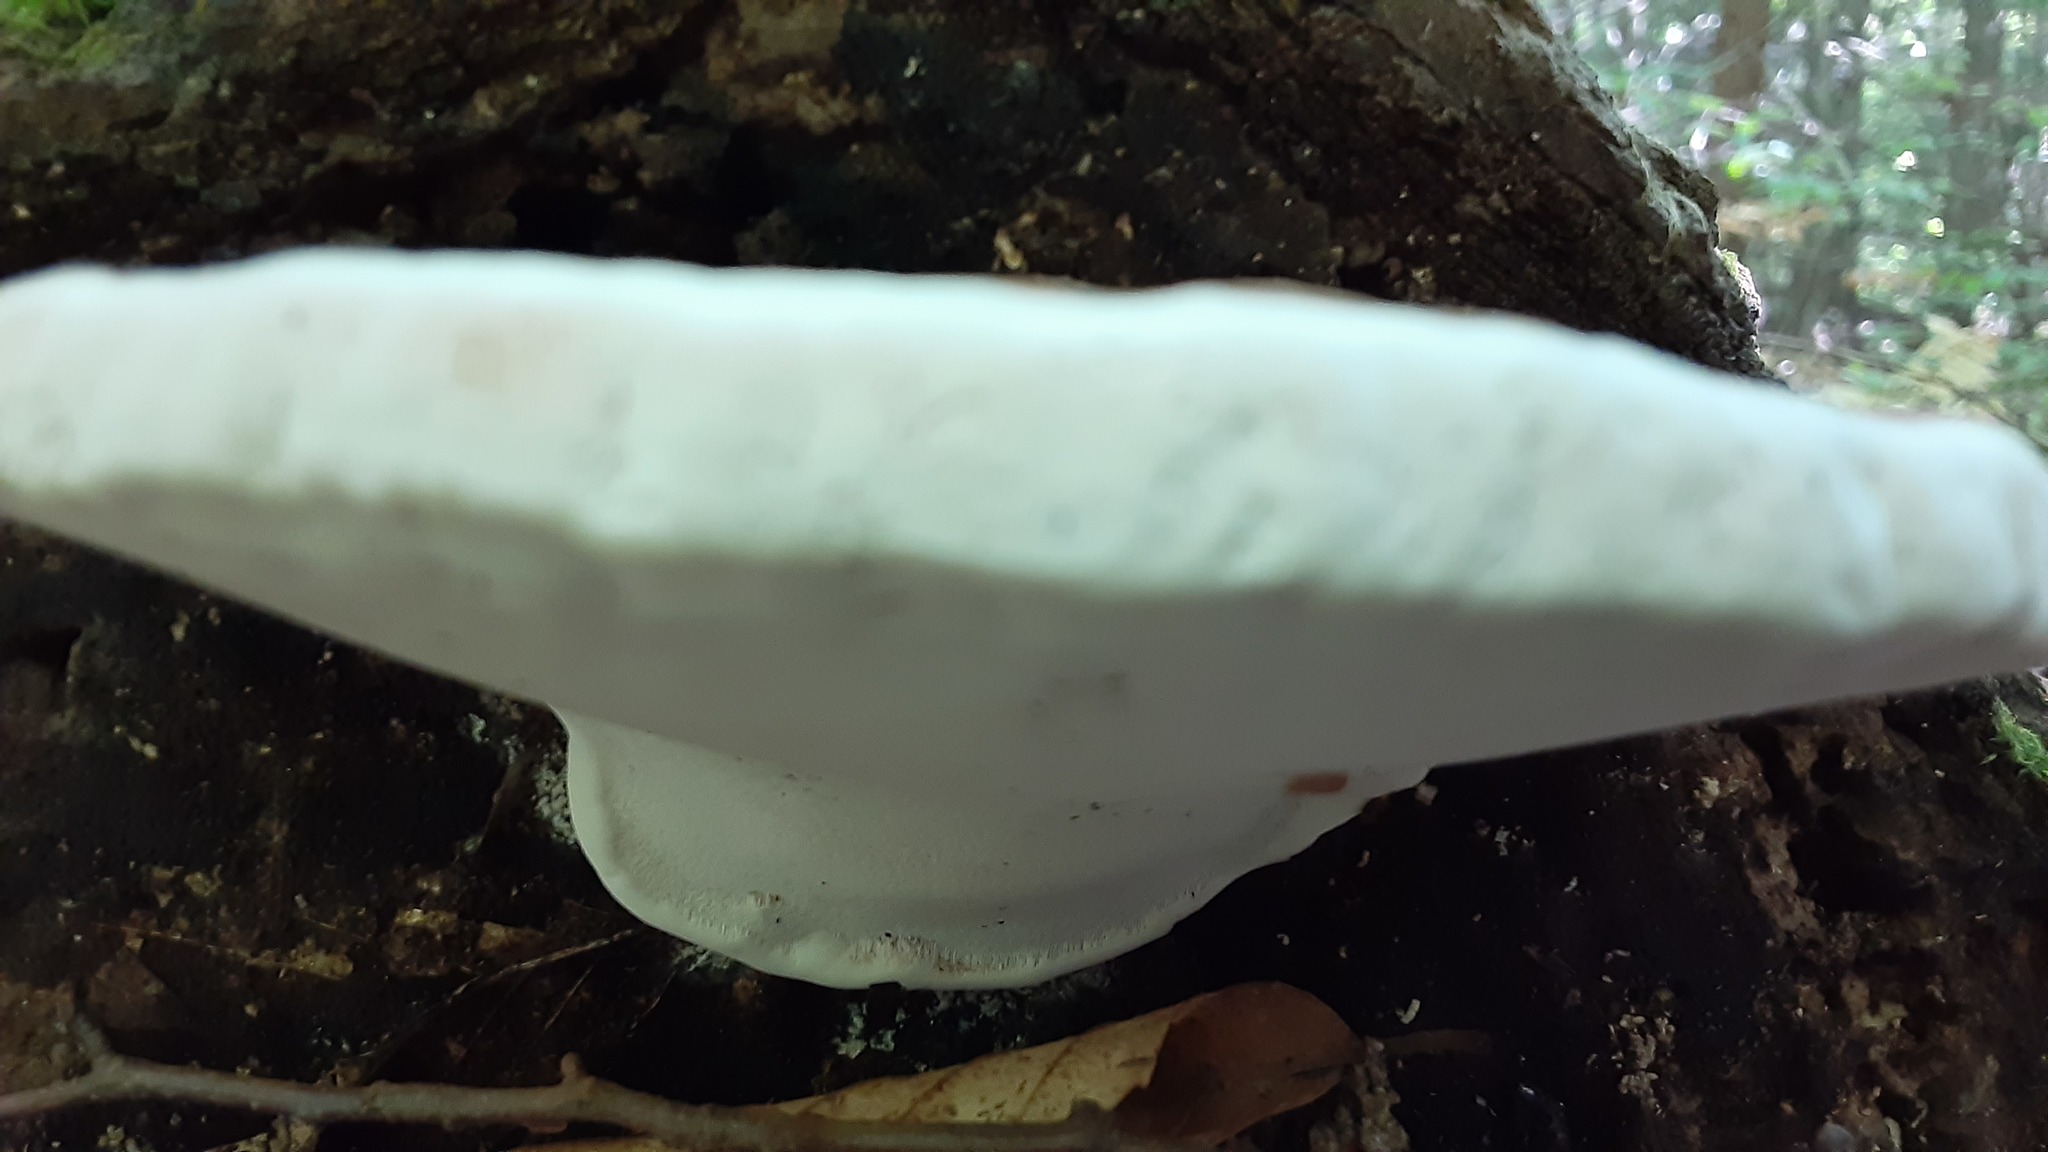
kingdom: Fungi
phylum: Basidiomycota
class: Agaricomycetes
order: Polyporales
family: Polyporaceae
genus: Ganoderma
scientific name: Ganoderma applanatum
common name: Artist's bracket
